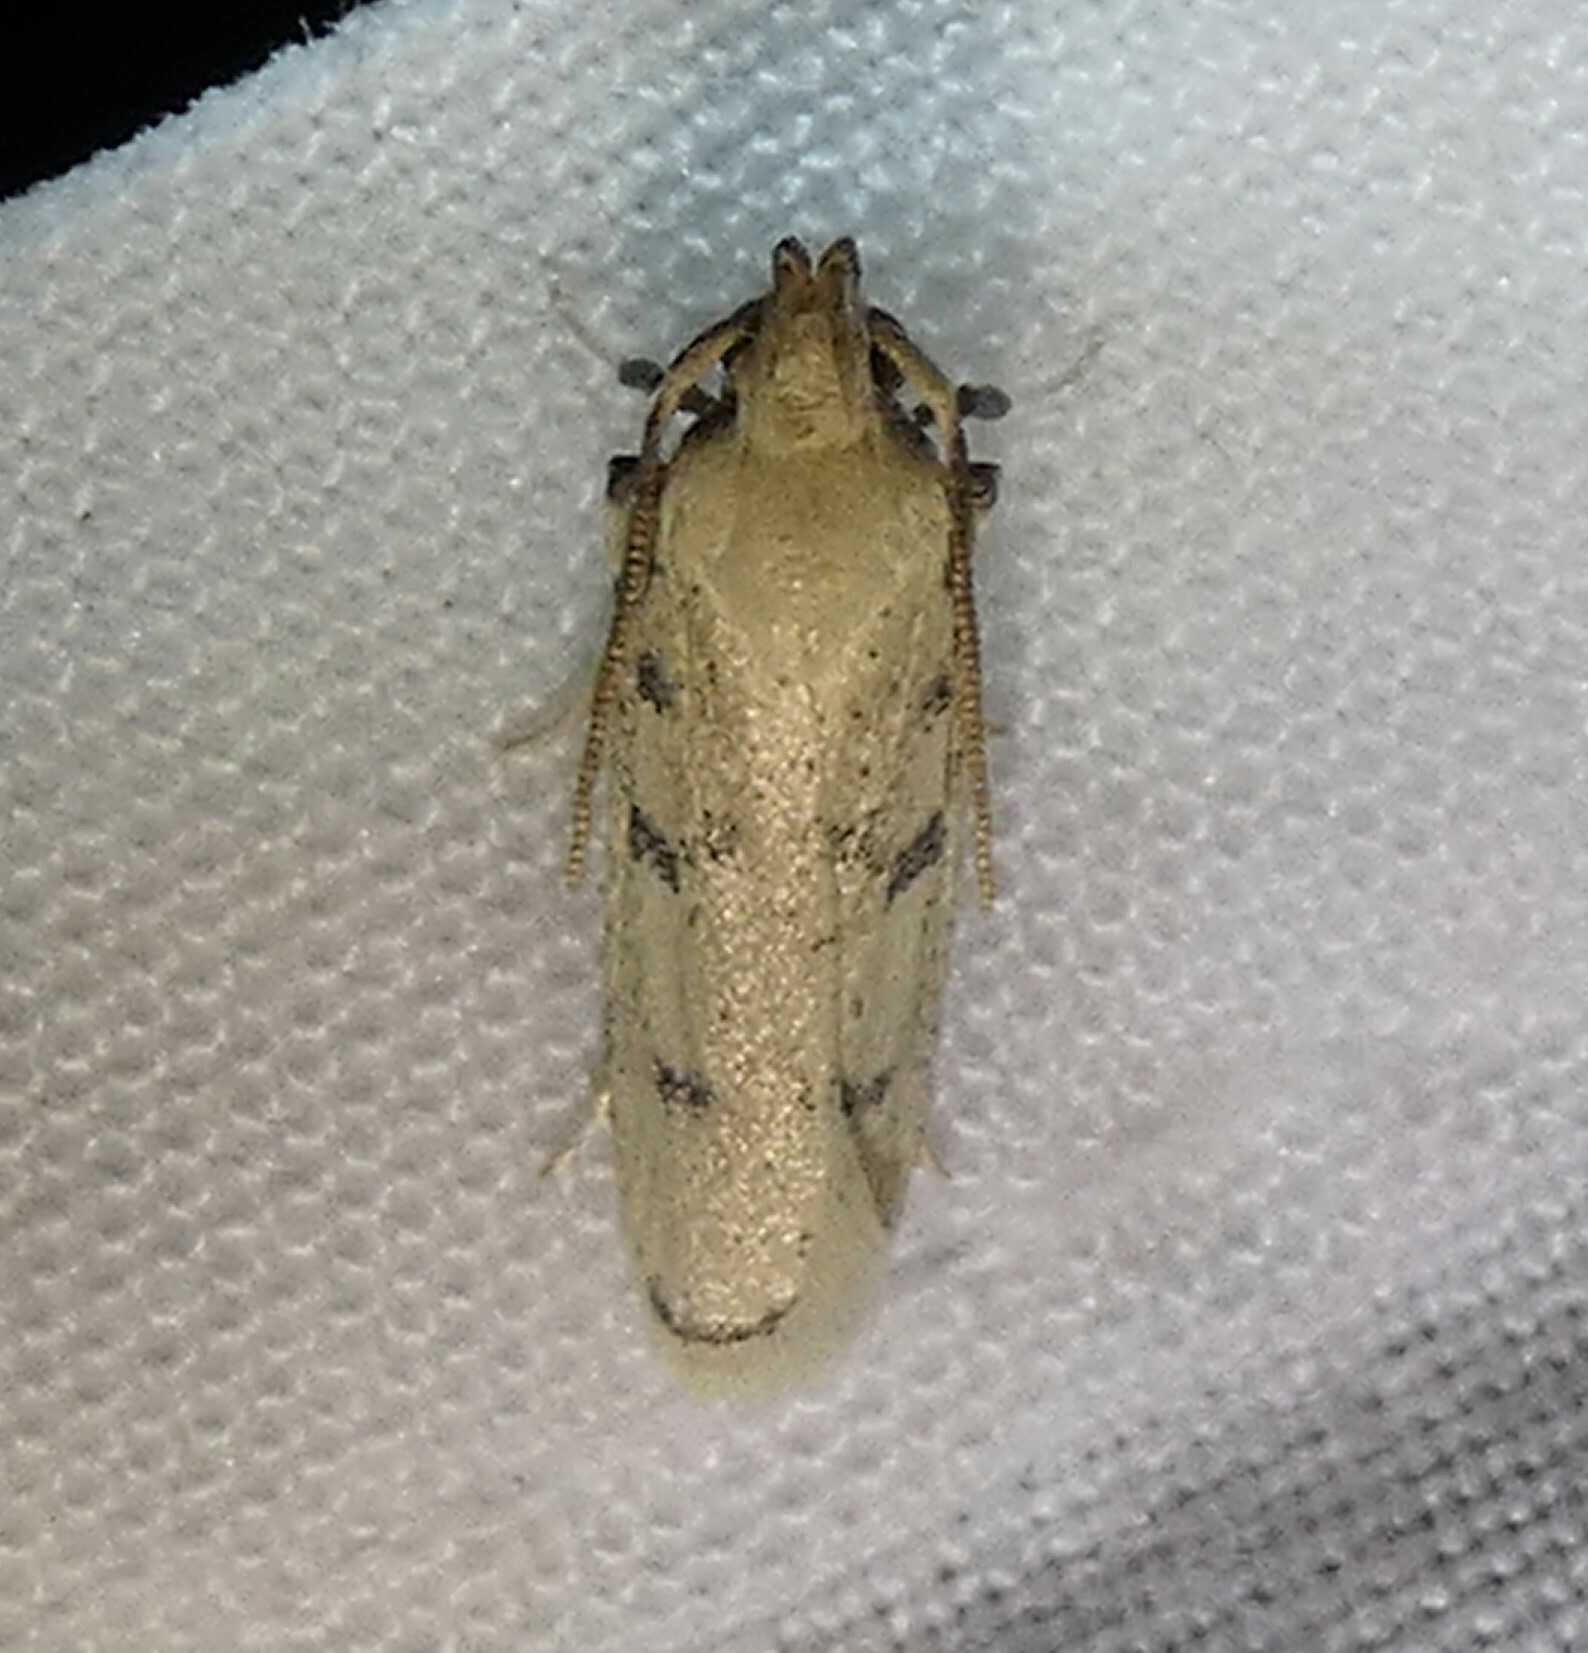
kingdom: Animalia
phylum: Arthropoda
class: Insecta
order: Lepidoptera
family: Autostichidae
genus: Glyphidocera
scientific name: Glyphidocera lactiflosella
